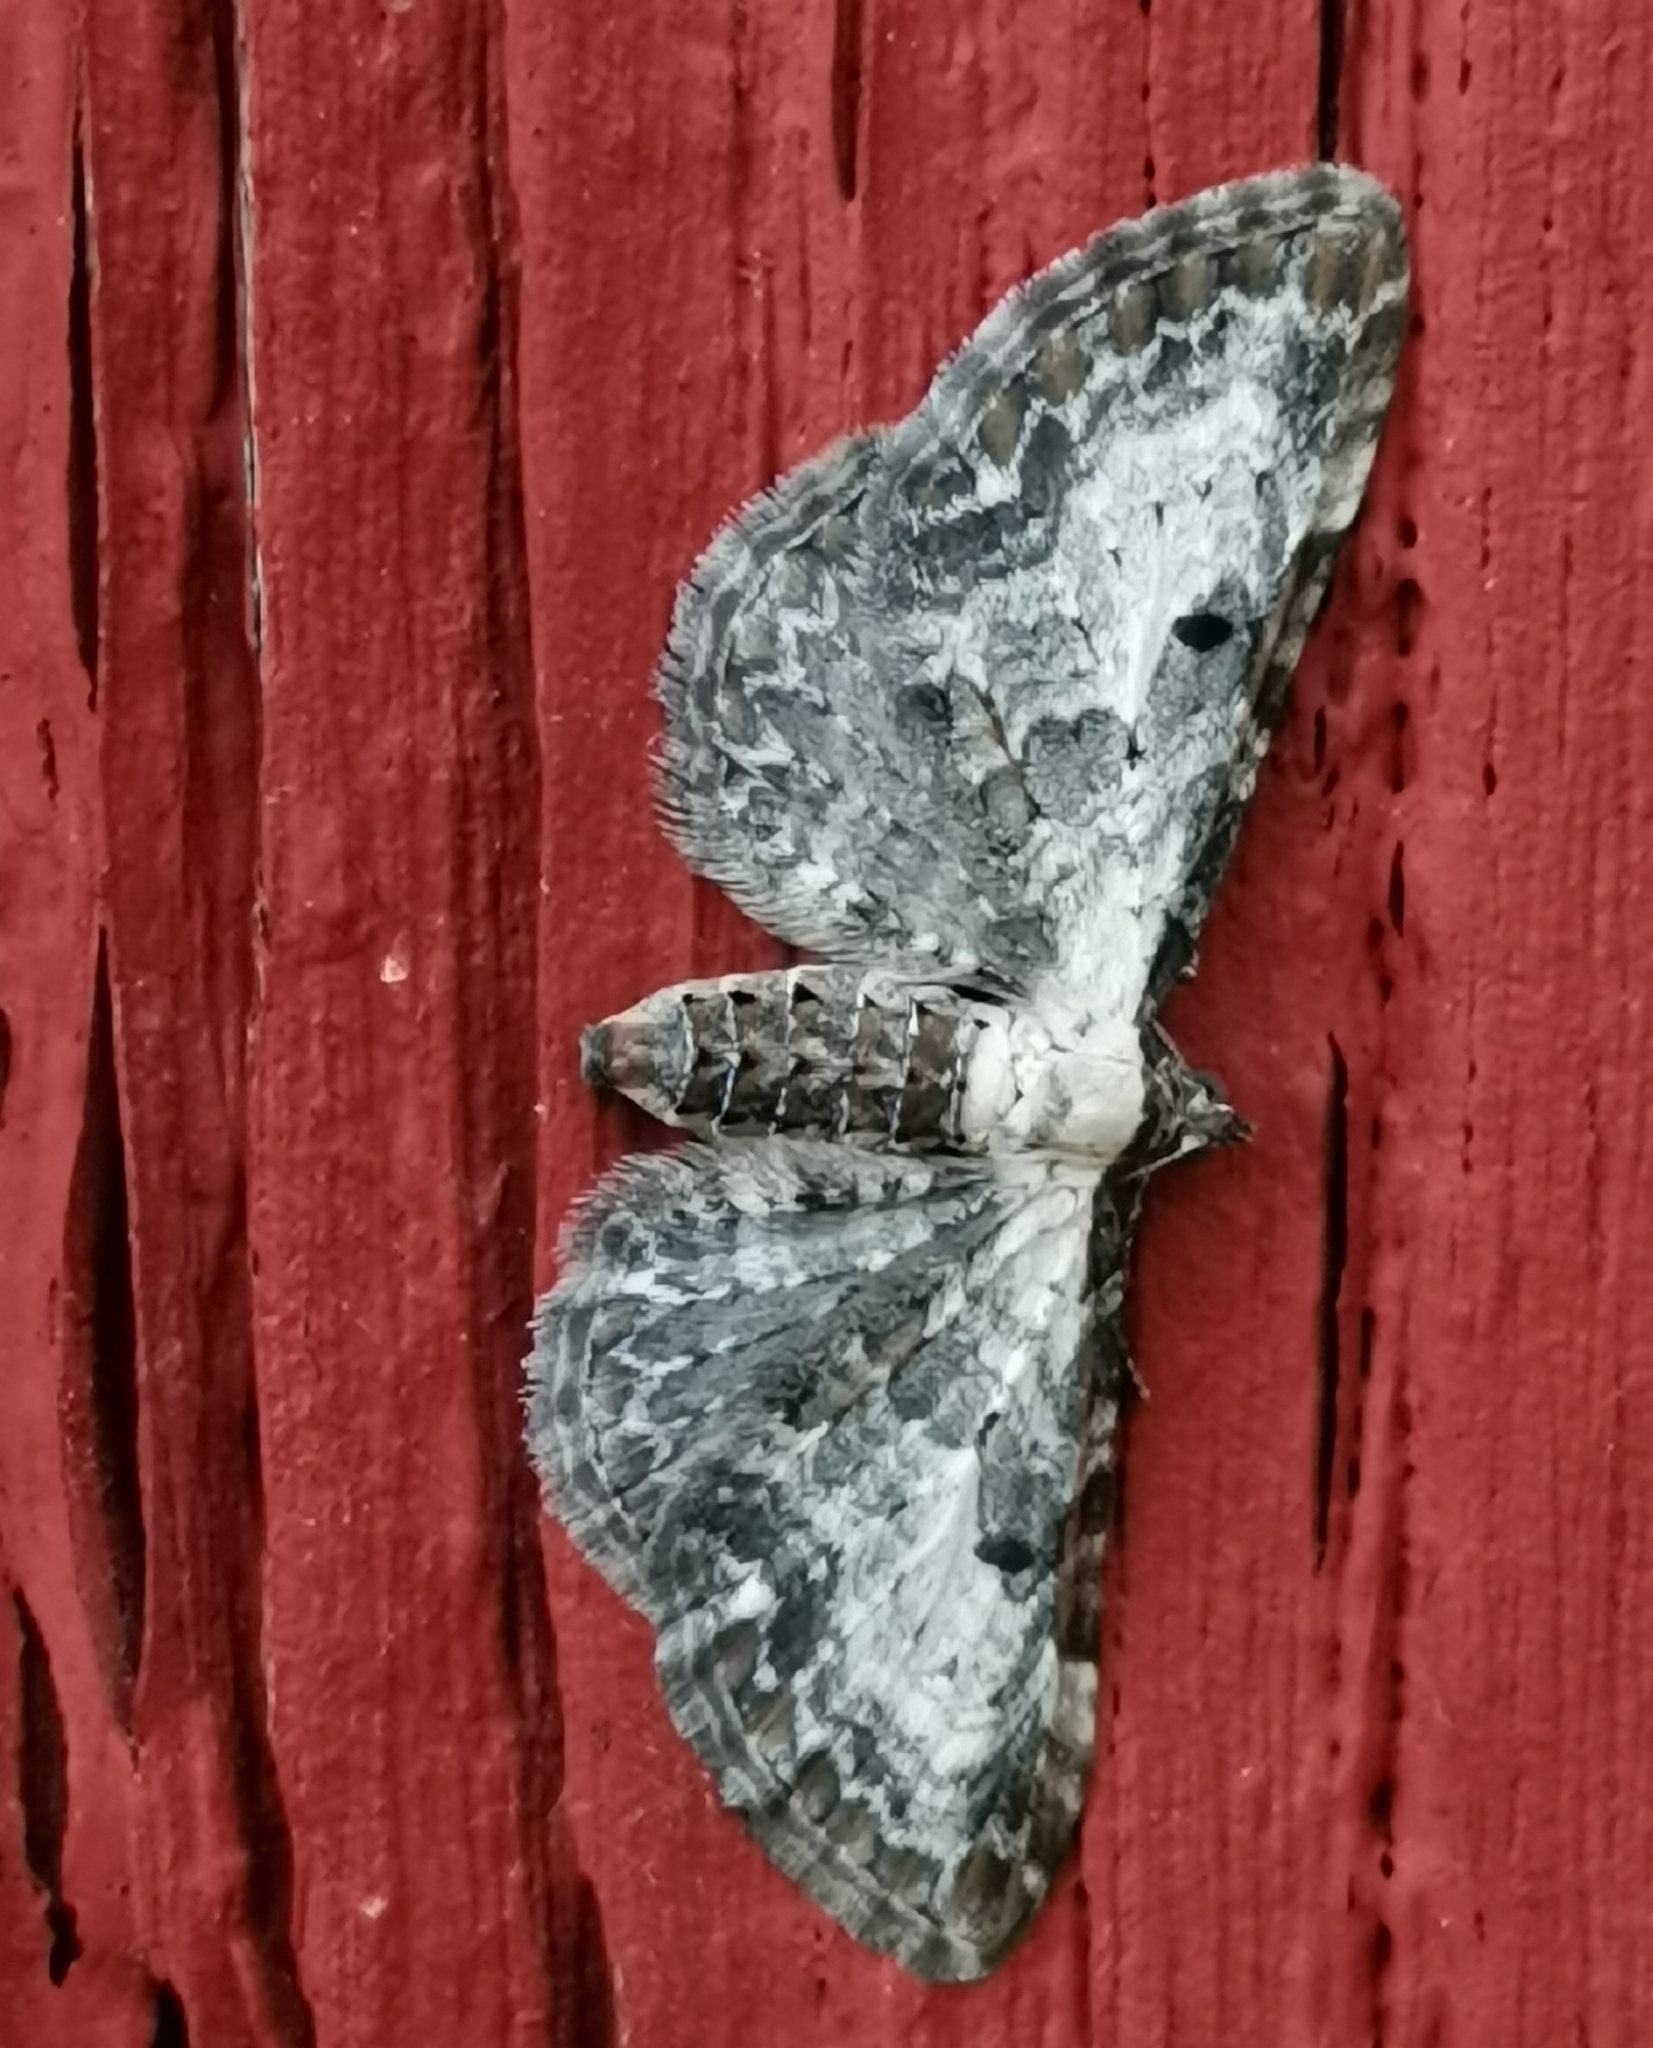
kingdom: Animalia
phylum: Arthropoda
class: Insecta
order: Lepidoptera
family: Geometridae
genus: Eupithecia
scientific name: Eupithecia succenturiata
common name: Bordered pug
